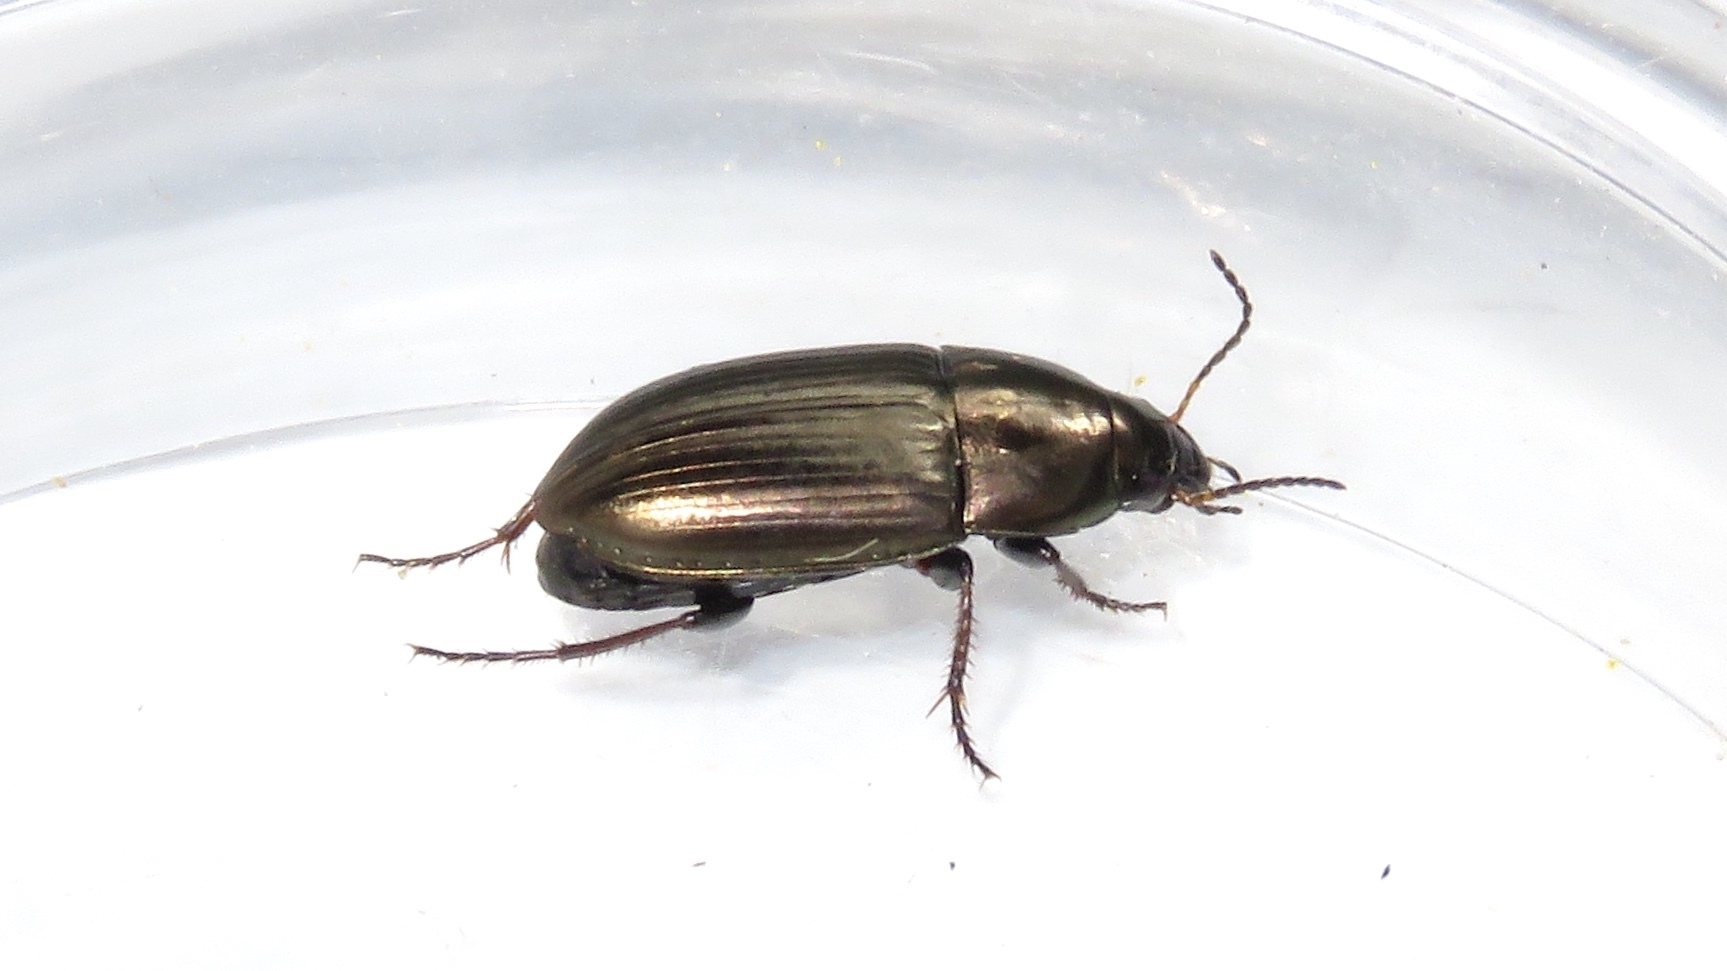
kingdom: Animalia
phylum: Arthropoda
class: Insecta
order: Coleoptera
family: Carabidae
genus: Amara
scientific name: Amara aenea
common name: Common sun beetle
